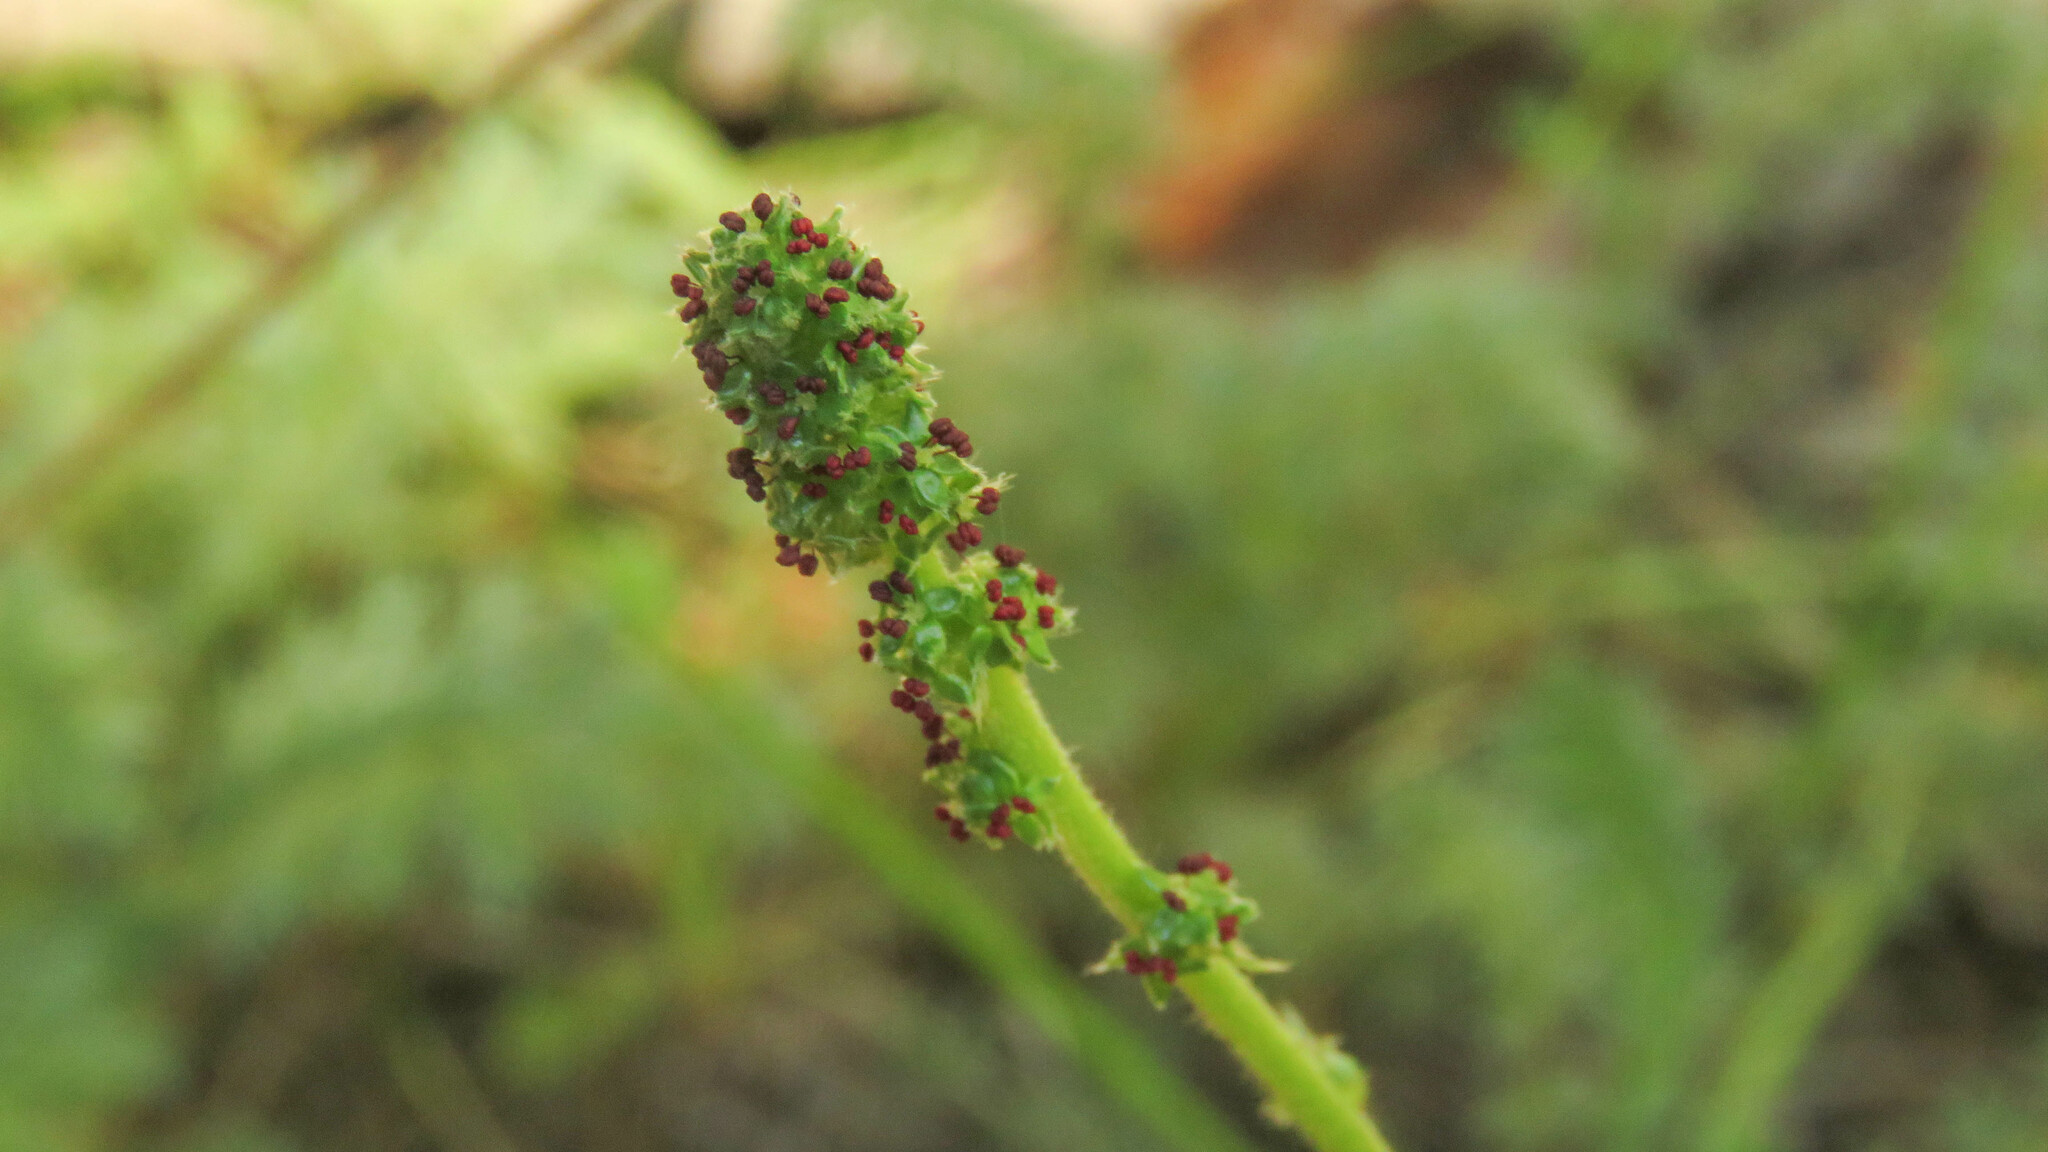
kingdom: Plantae
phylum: Tracheophyta
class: Magnoliopsida
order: Rosales
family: Rosaceae
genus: Acaena
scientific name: Acaena pinnatifida
